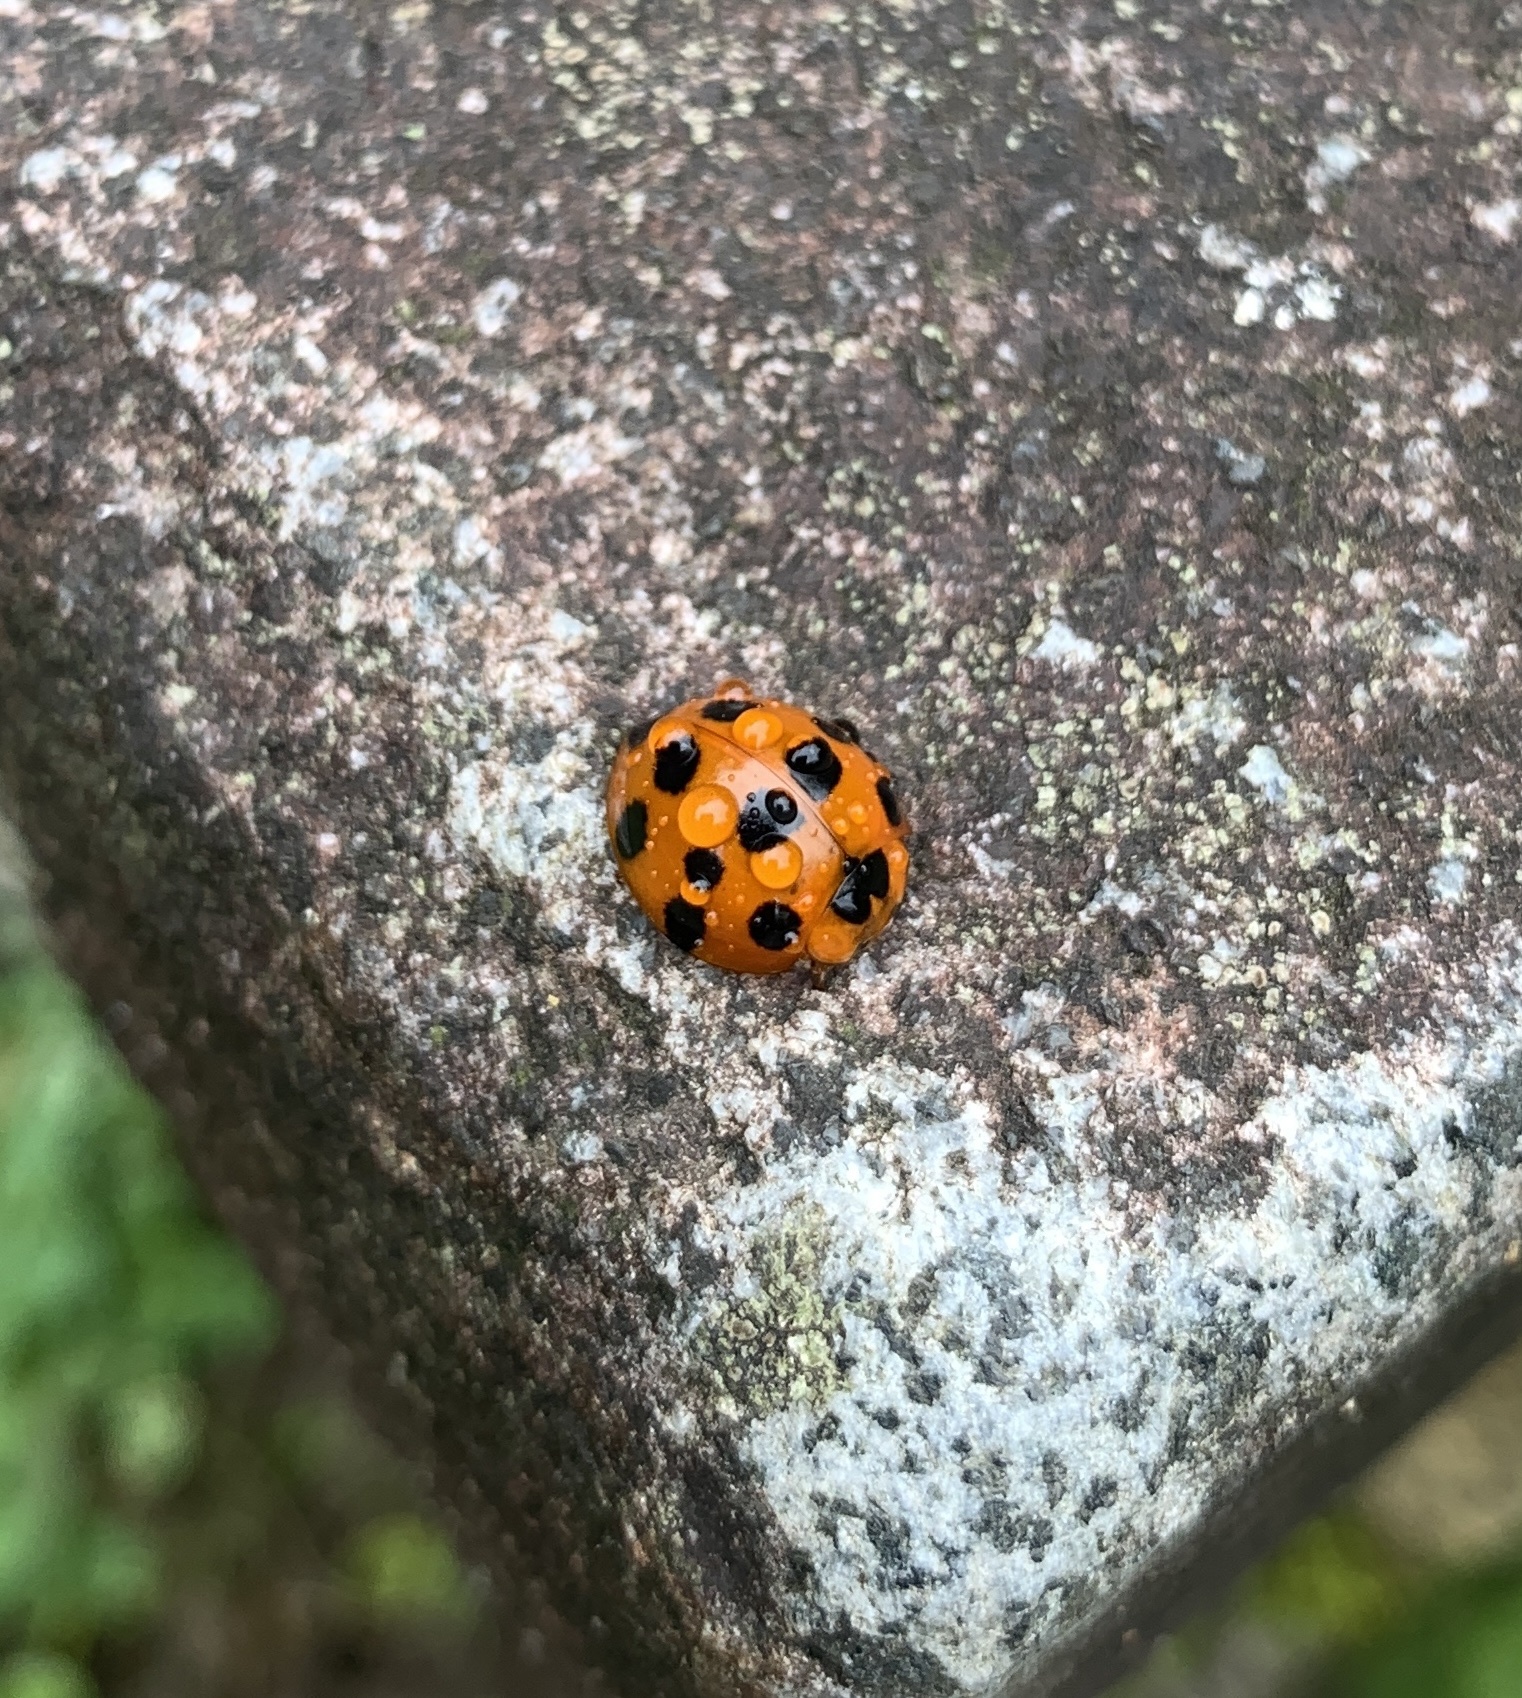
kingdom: Animalia
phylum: Arthropoda
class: Insecta
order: Coleoptera
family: Coccinellidae
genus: Harmonia
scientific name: Harmonia dimidiata
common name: Ladybird beetle
